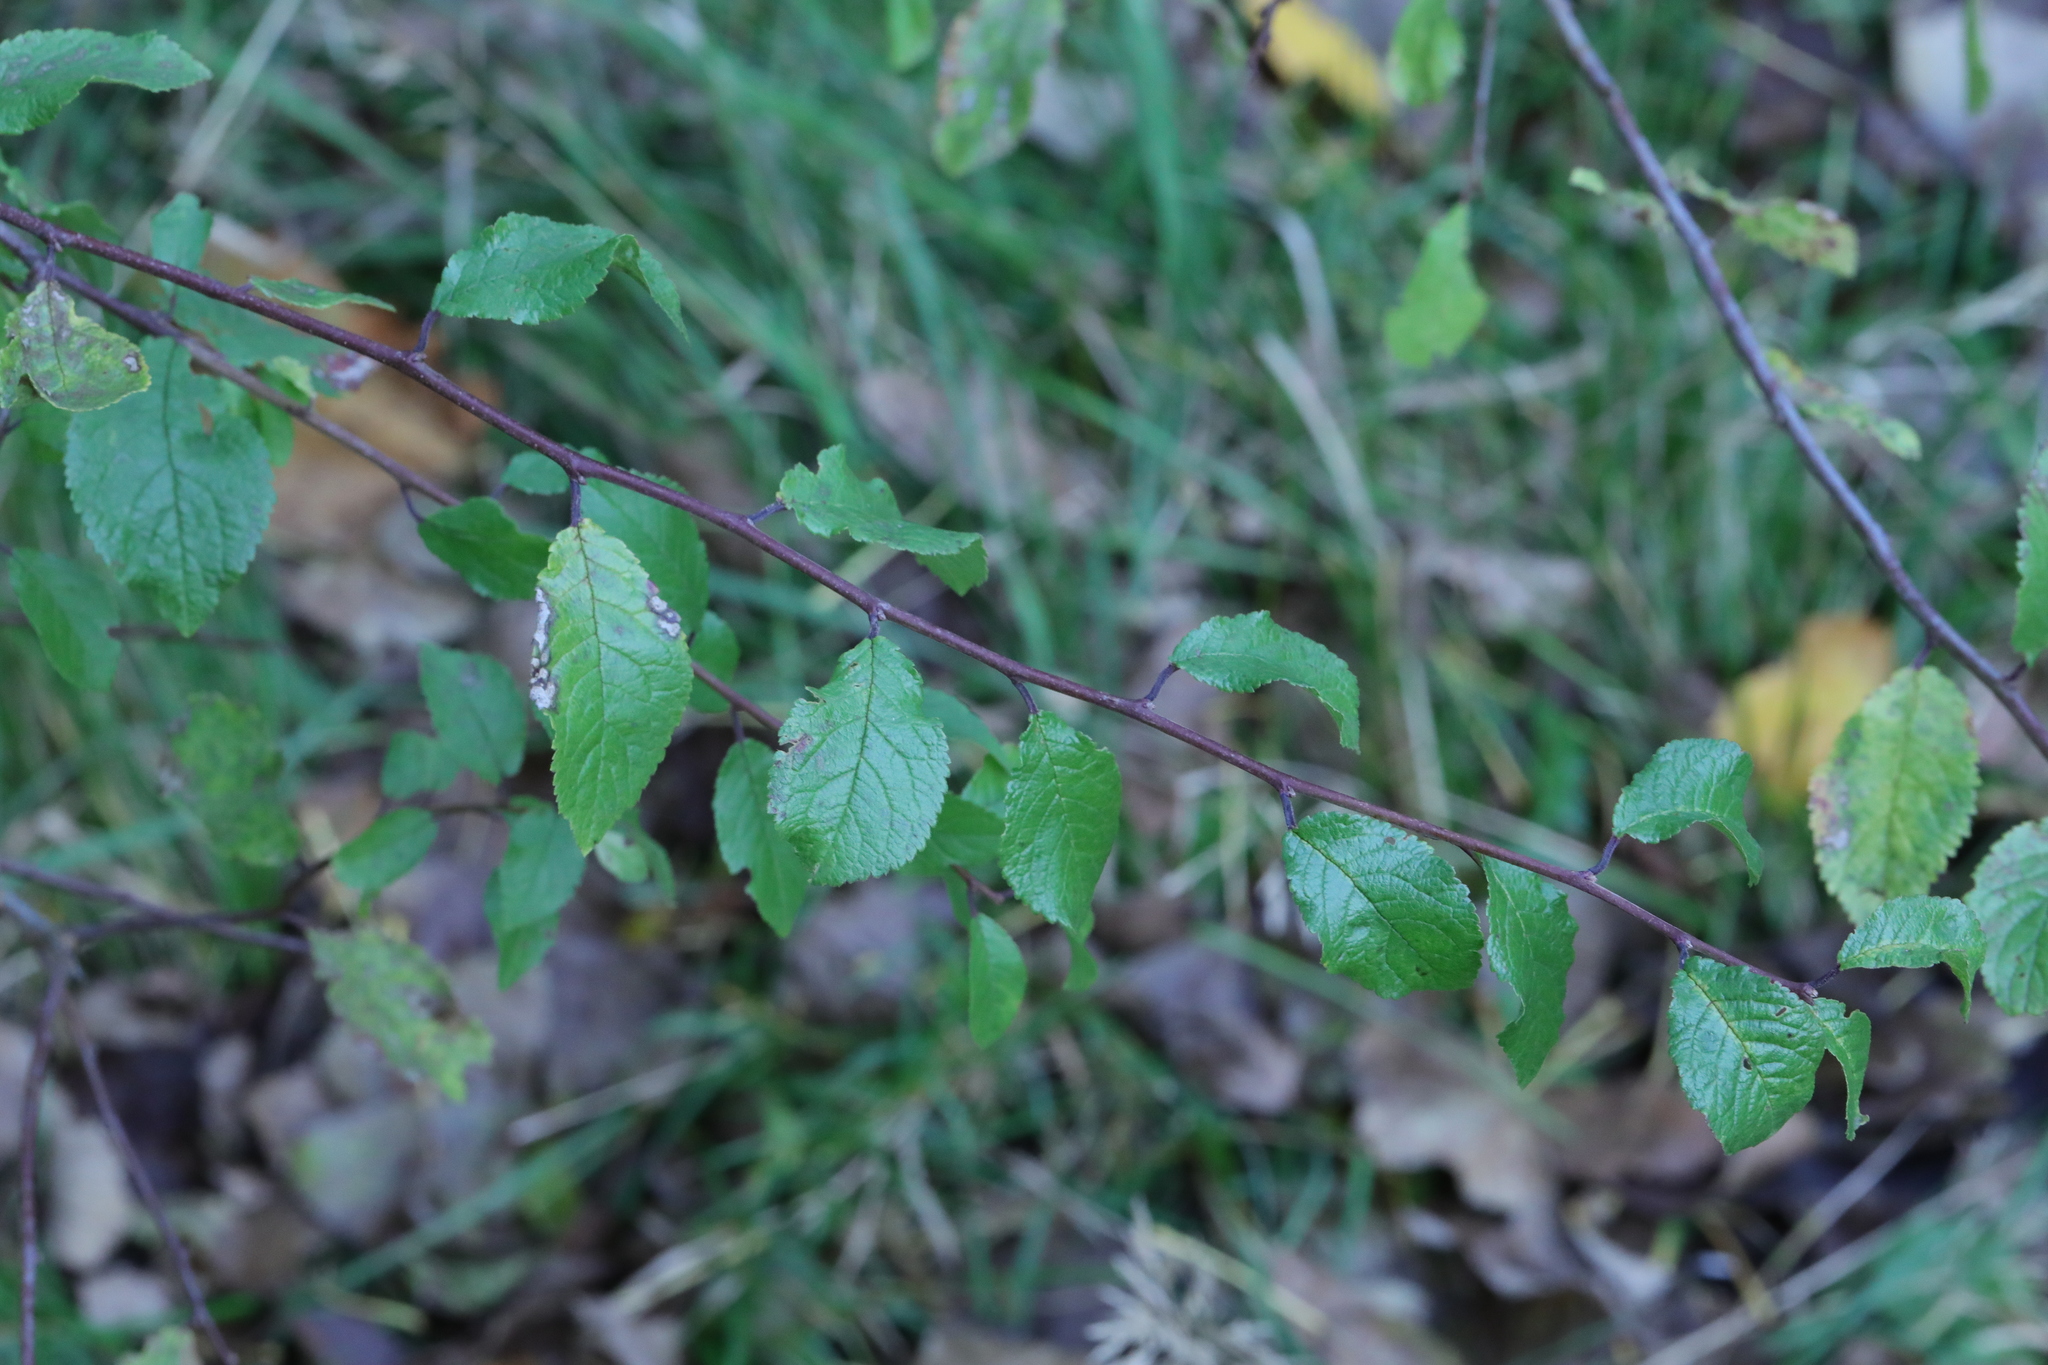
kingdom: Plantae
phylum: Tracheophyta
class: Magnoliopsida
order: Rosales
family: Rosaceae
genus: Prunus
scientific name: Prunus spinosa
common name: Blackthorn
